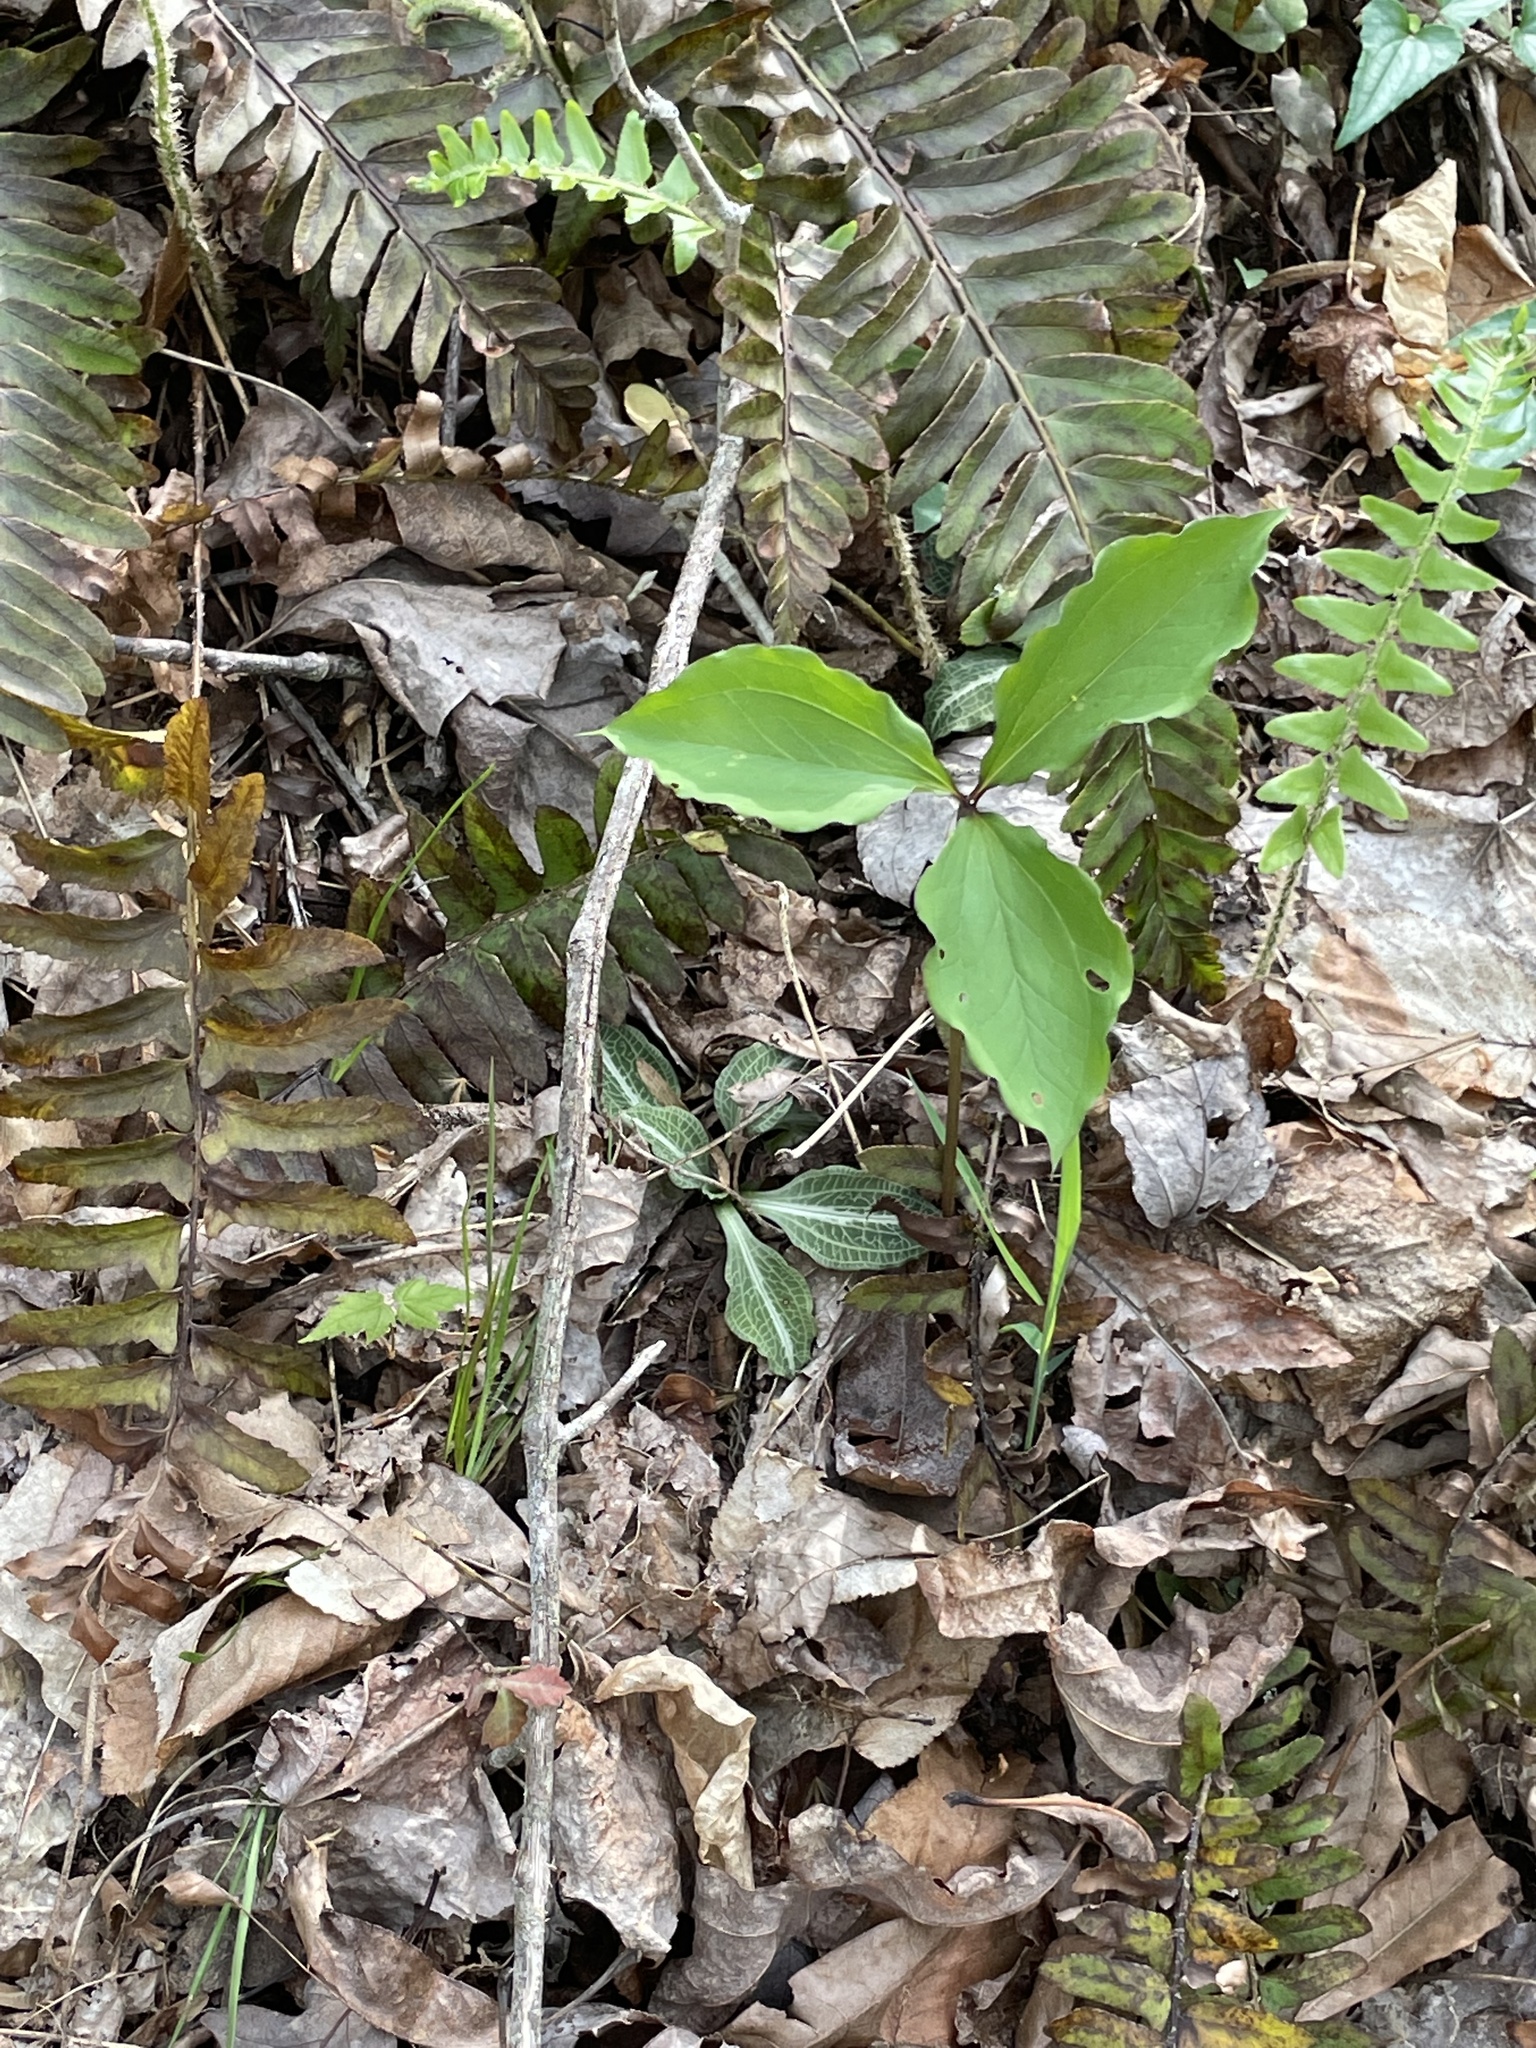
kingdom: Plantae
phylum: Tracheophyta
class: Liliopsida
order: Asparagales
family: Orchidaceae
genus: Goodyera
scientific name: Goodyera pubescens
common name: Downy rattlesnake-plantain
